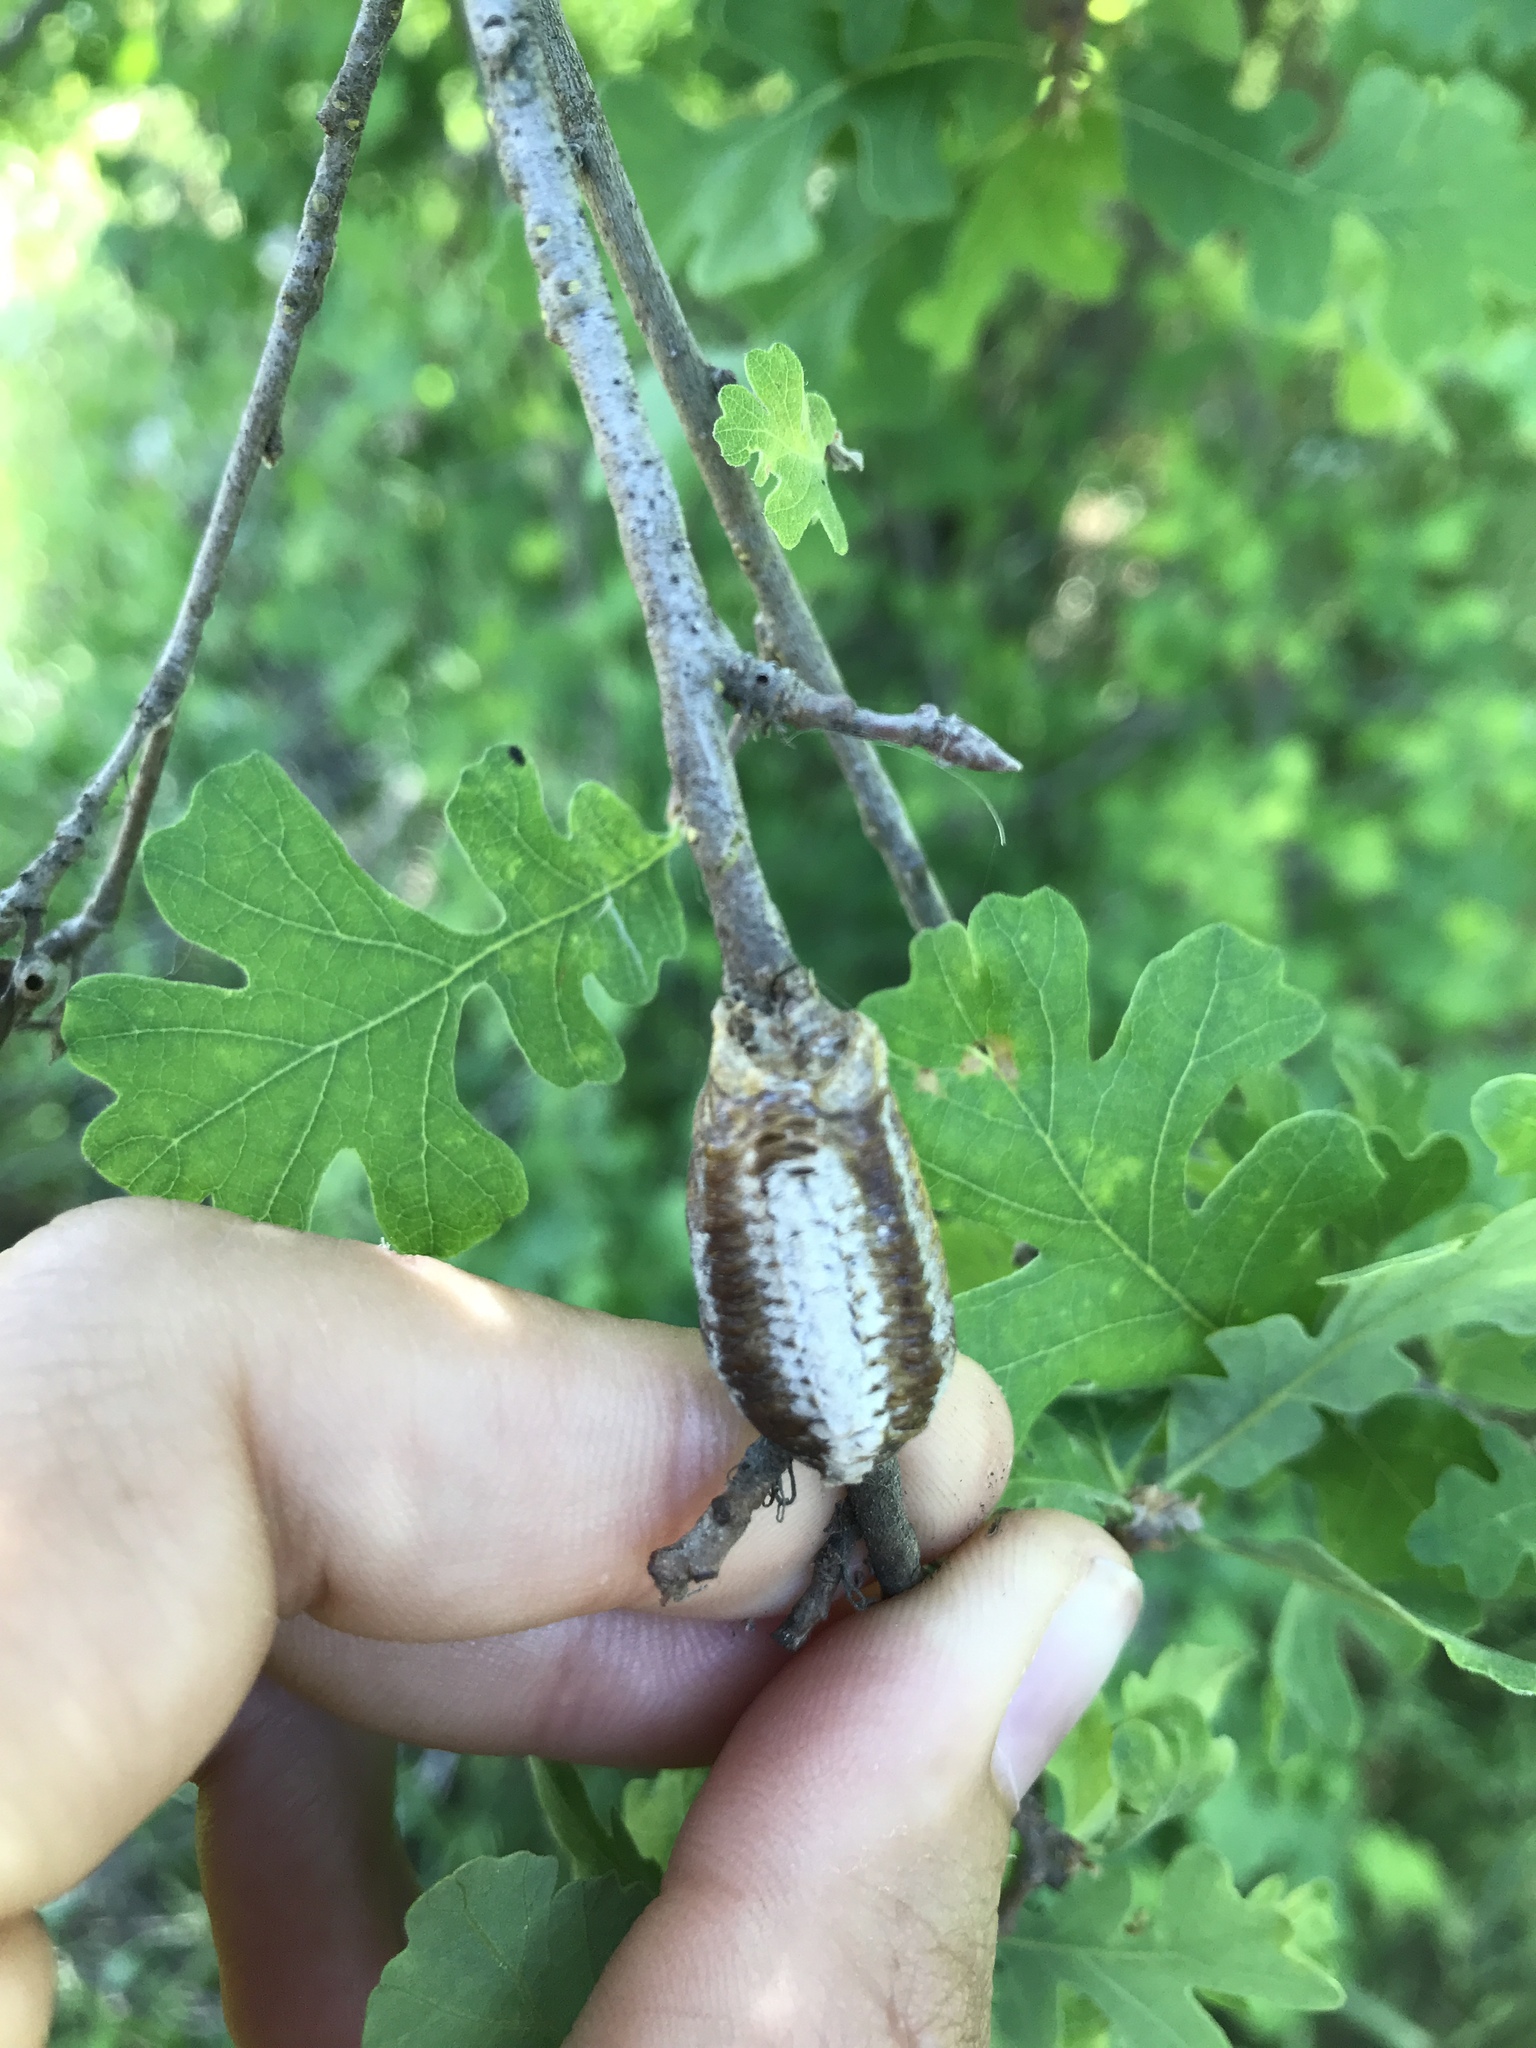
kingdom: Animalia
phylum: Arthropoda
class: Insecta
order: Mantodea
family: Mantidae
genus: Stagmomantis
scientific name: Stagmomantis limbata
